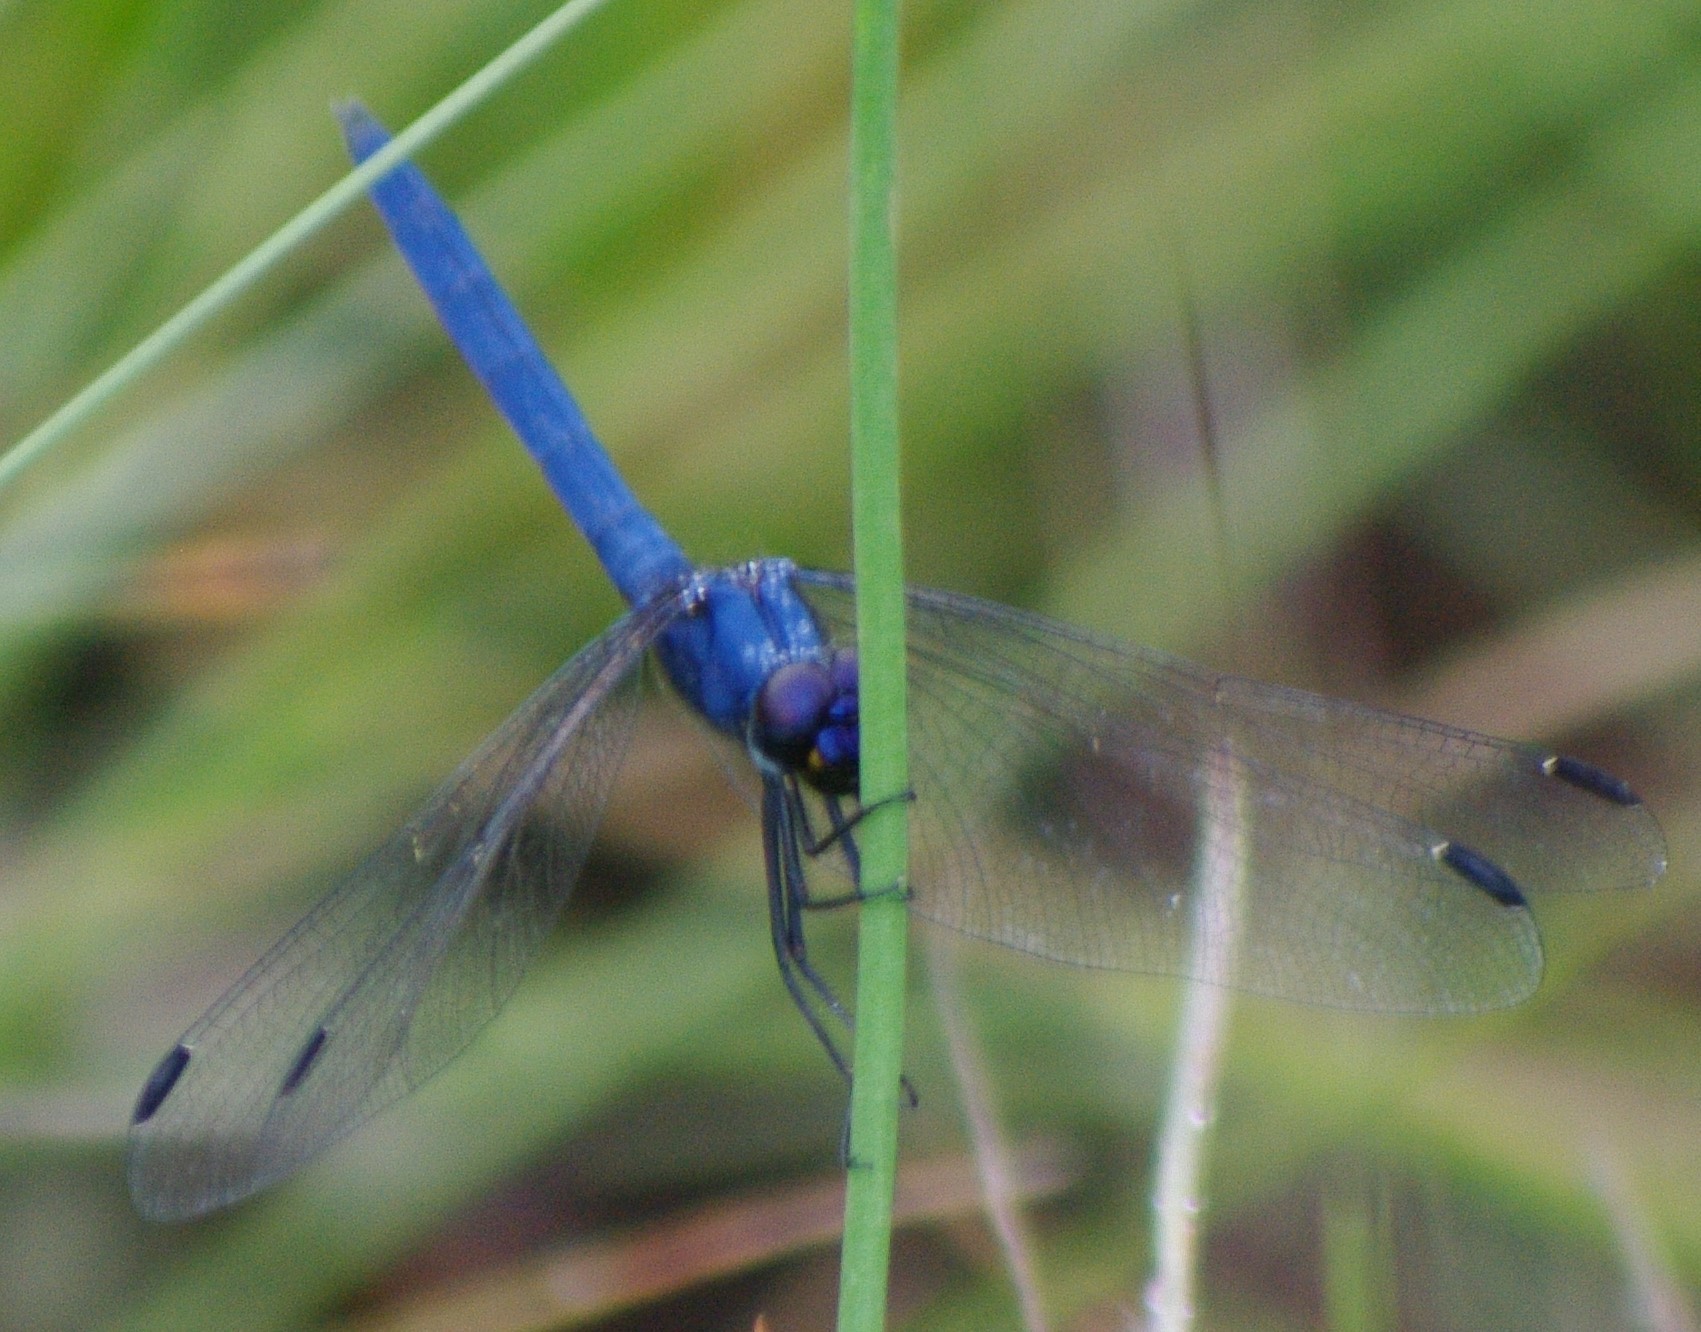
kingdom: Animalia
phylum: Arthropoda
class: Insecta
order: Odonata
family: Libellulidae
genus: Trithemis
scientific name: Trithemis dorsalis
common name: Highland dropwing
